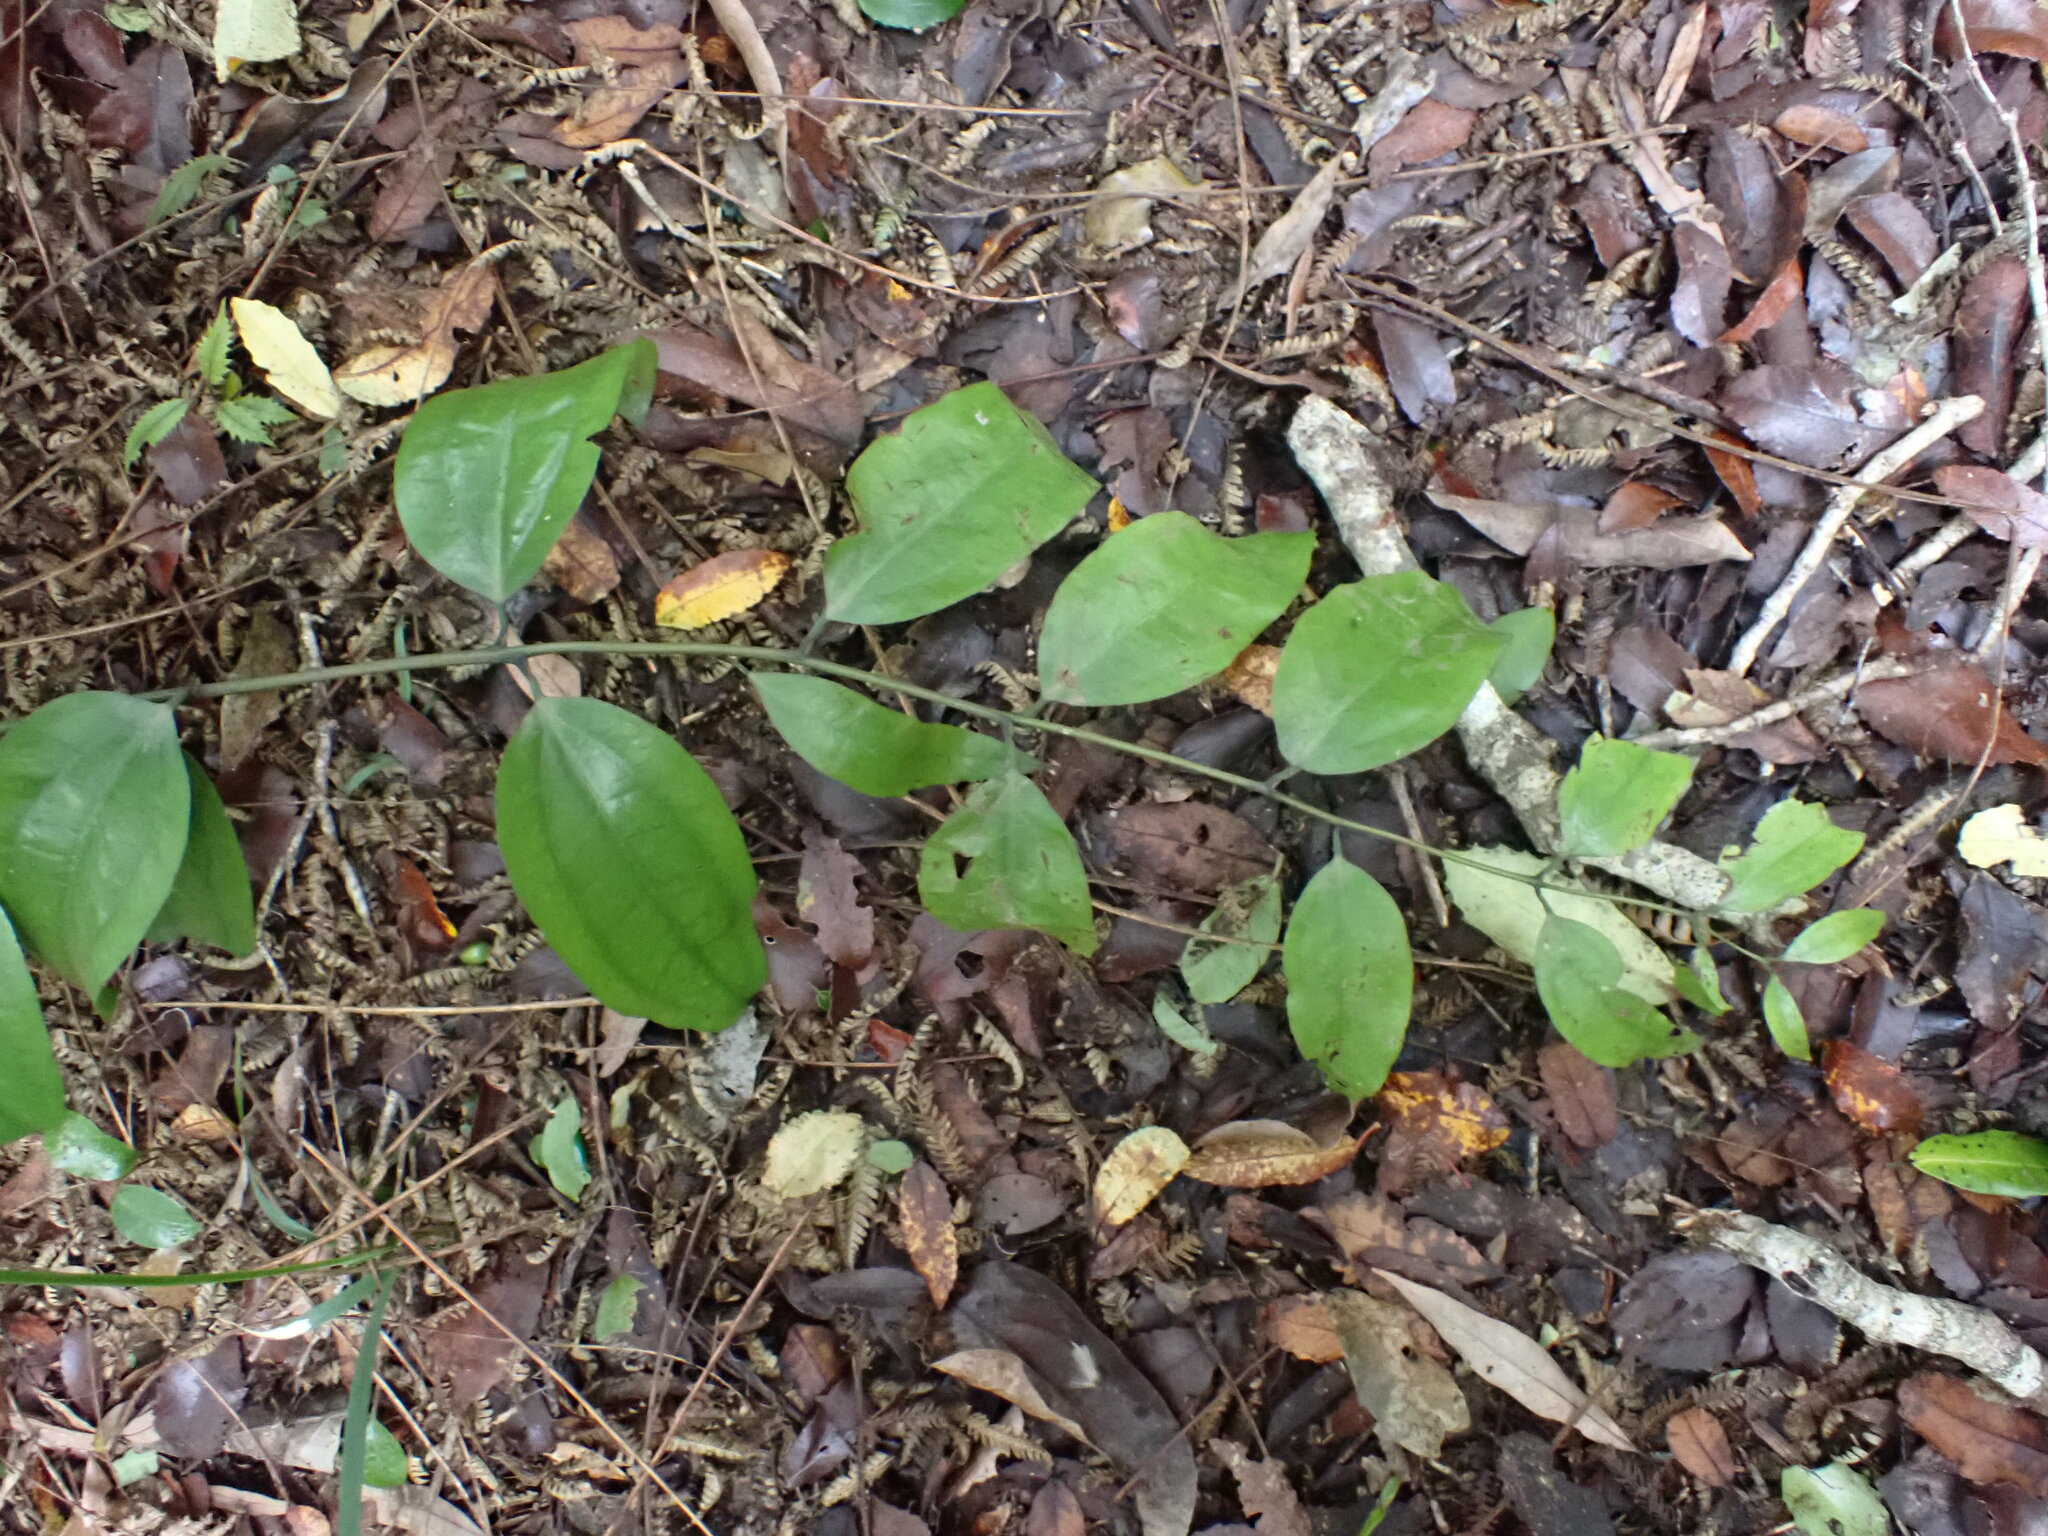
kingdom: Plantae
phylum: Tracheophyta
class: Liliopsida
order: Liliales
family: Ripogonaceae
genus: Ripogonum
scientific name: Ripogonum scandens
